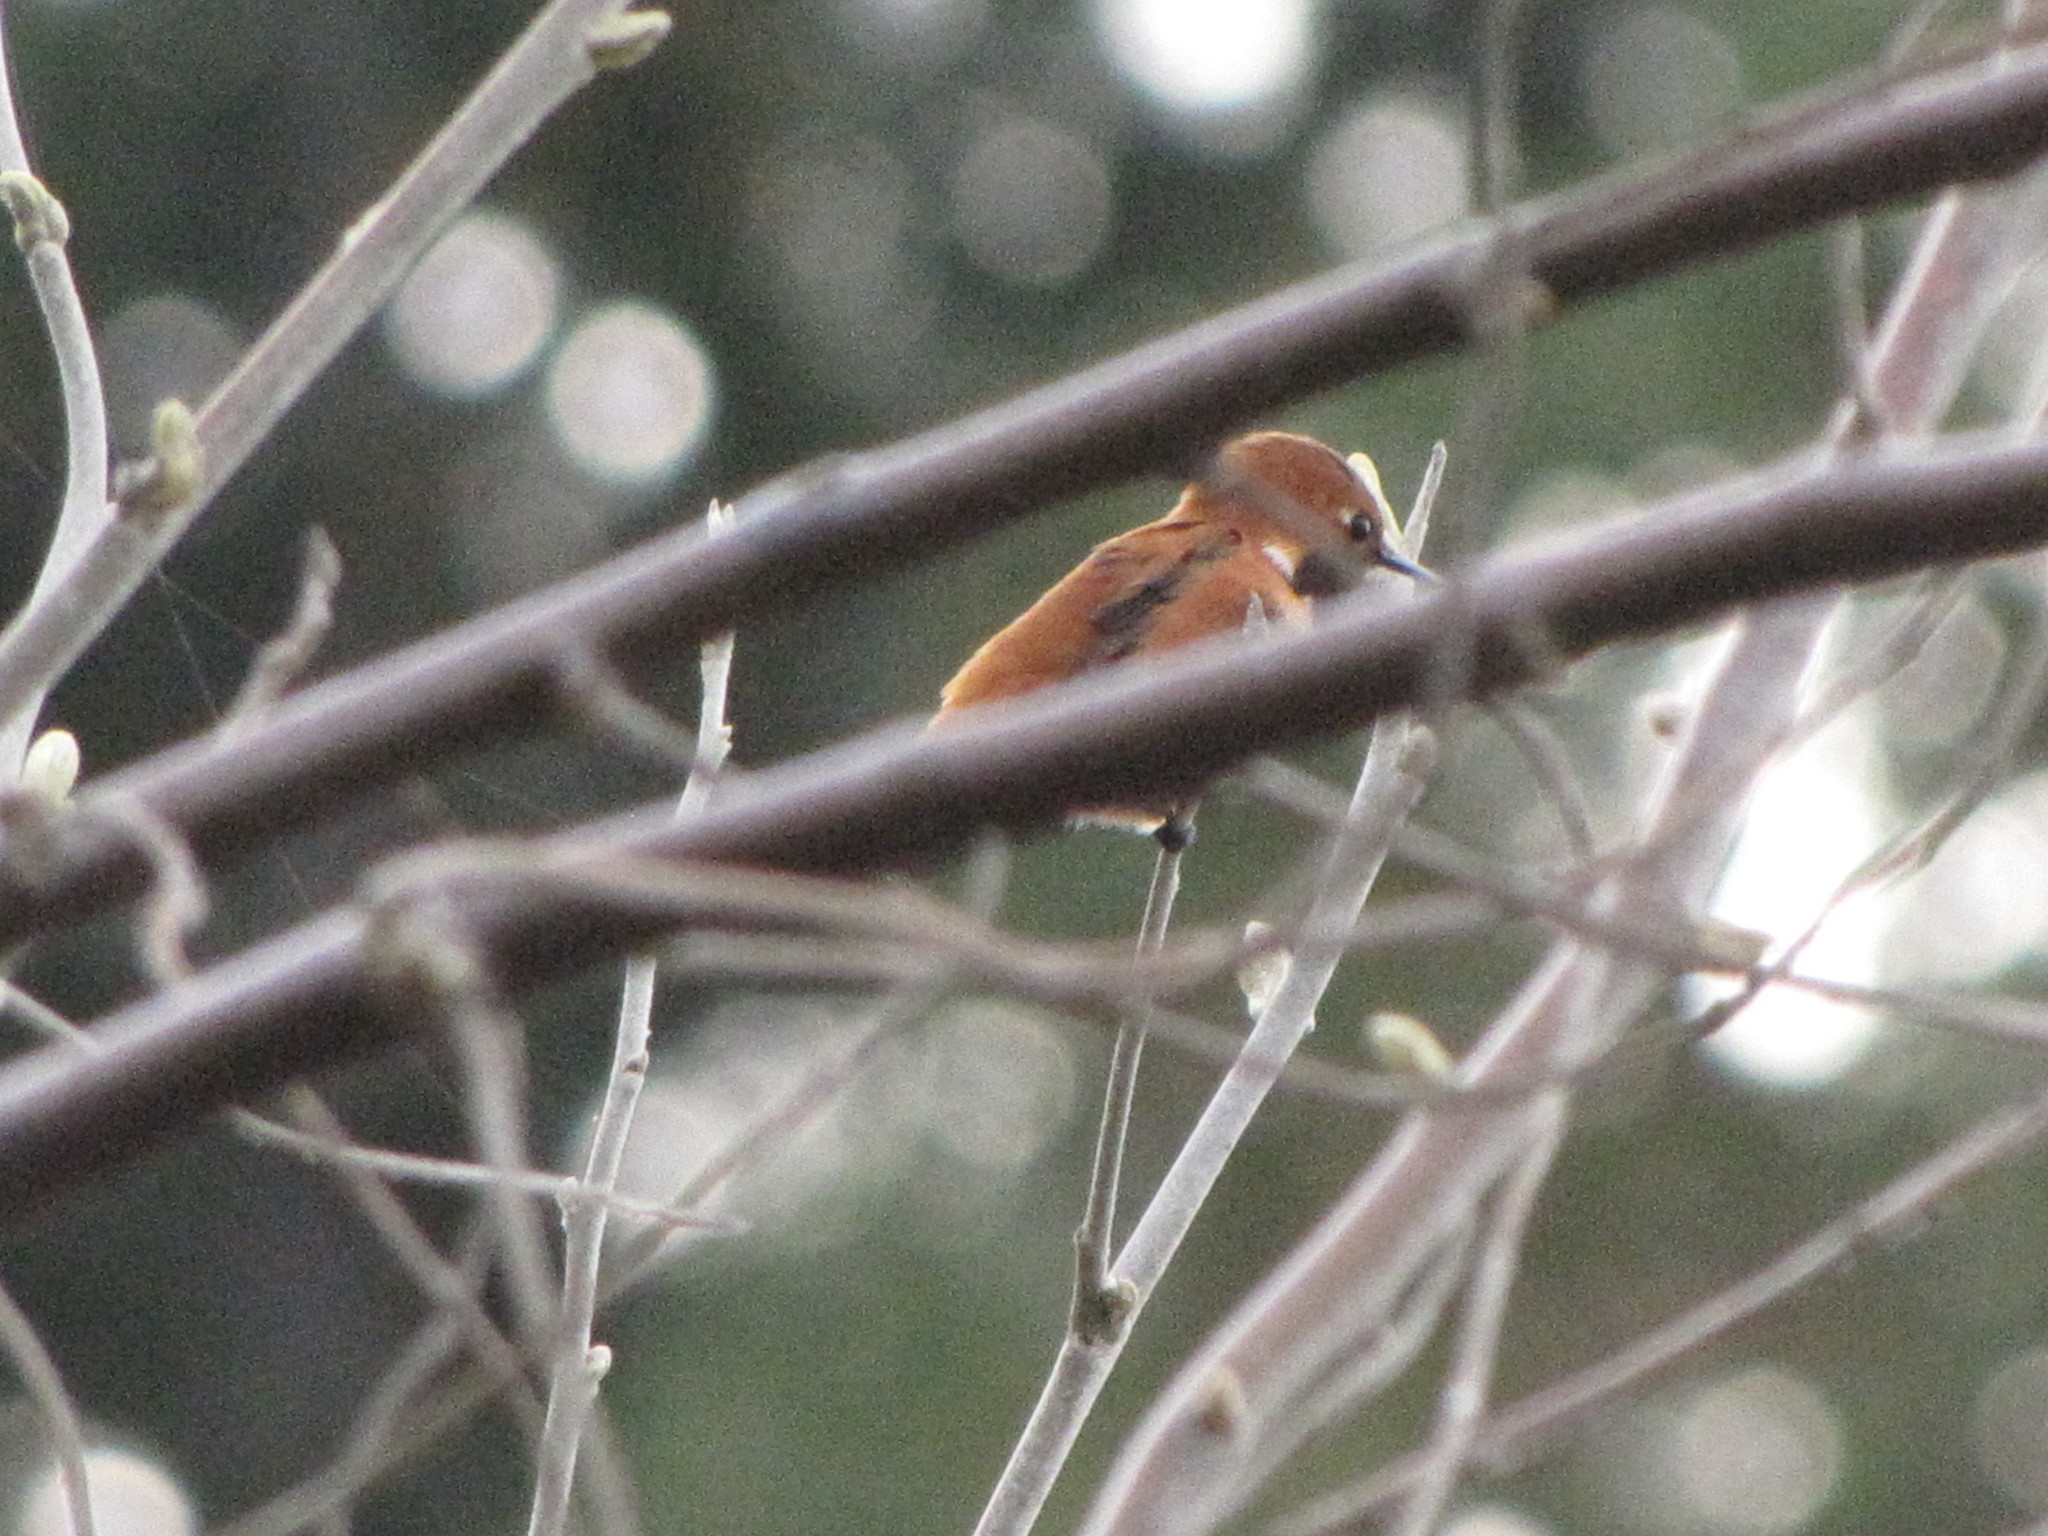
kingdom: Animalia
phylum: Chordata
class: Aves
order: Apodiformes
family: Trochilidae
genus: Selasphorus
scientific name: Selasphorus rufus
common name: Rufous hummingbird
